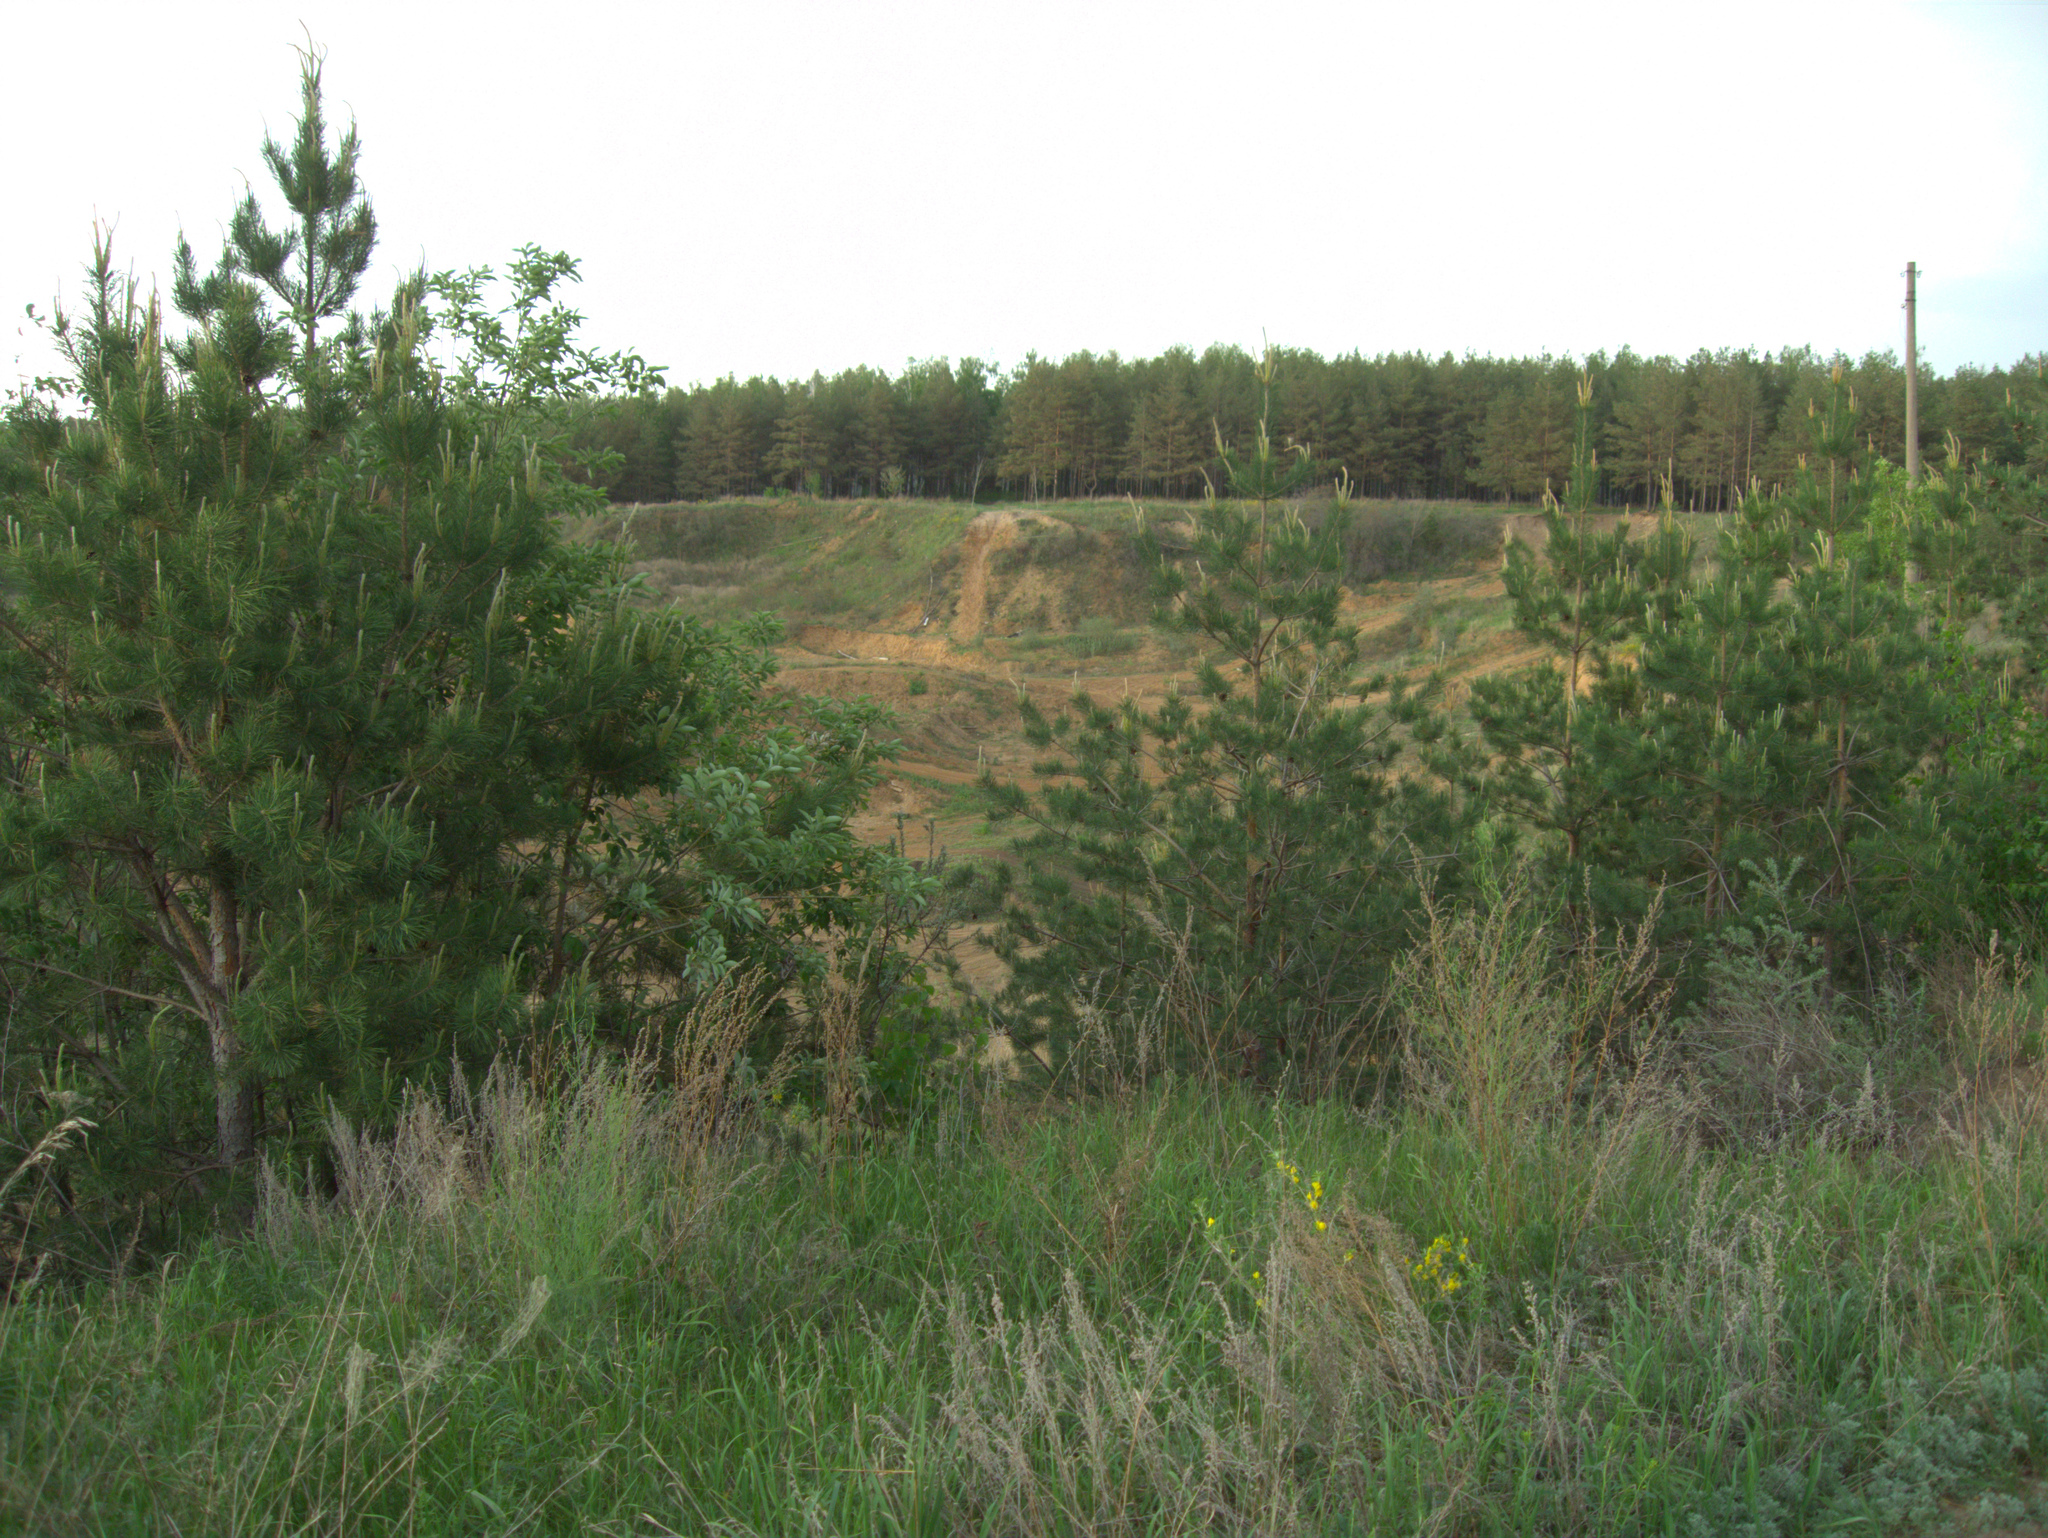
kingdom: Plantae
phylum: Tracheophyta
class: Pinopsida
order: Pinales
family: Pinaceae
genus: Pinus
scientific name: Pinus sylvestris
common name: Scots pine
